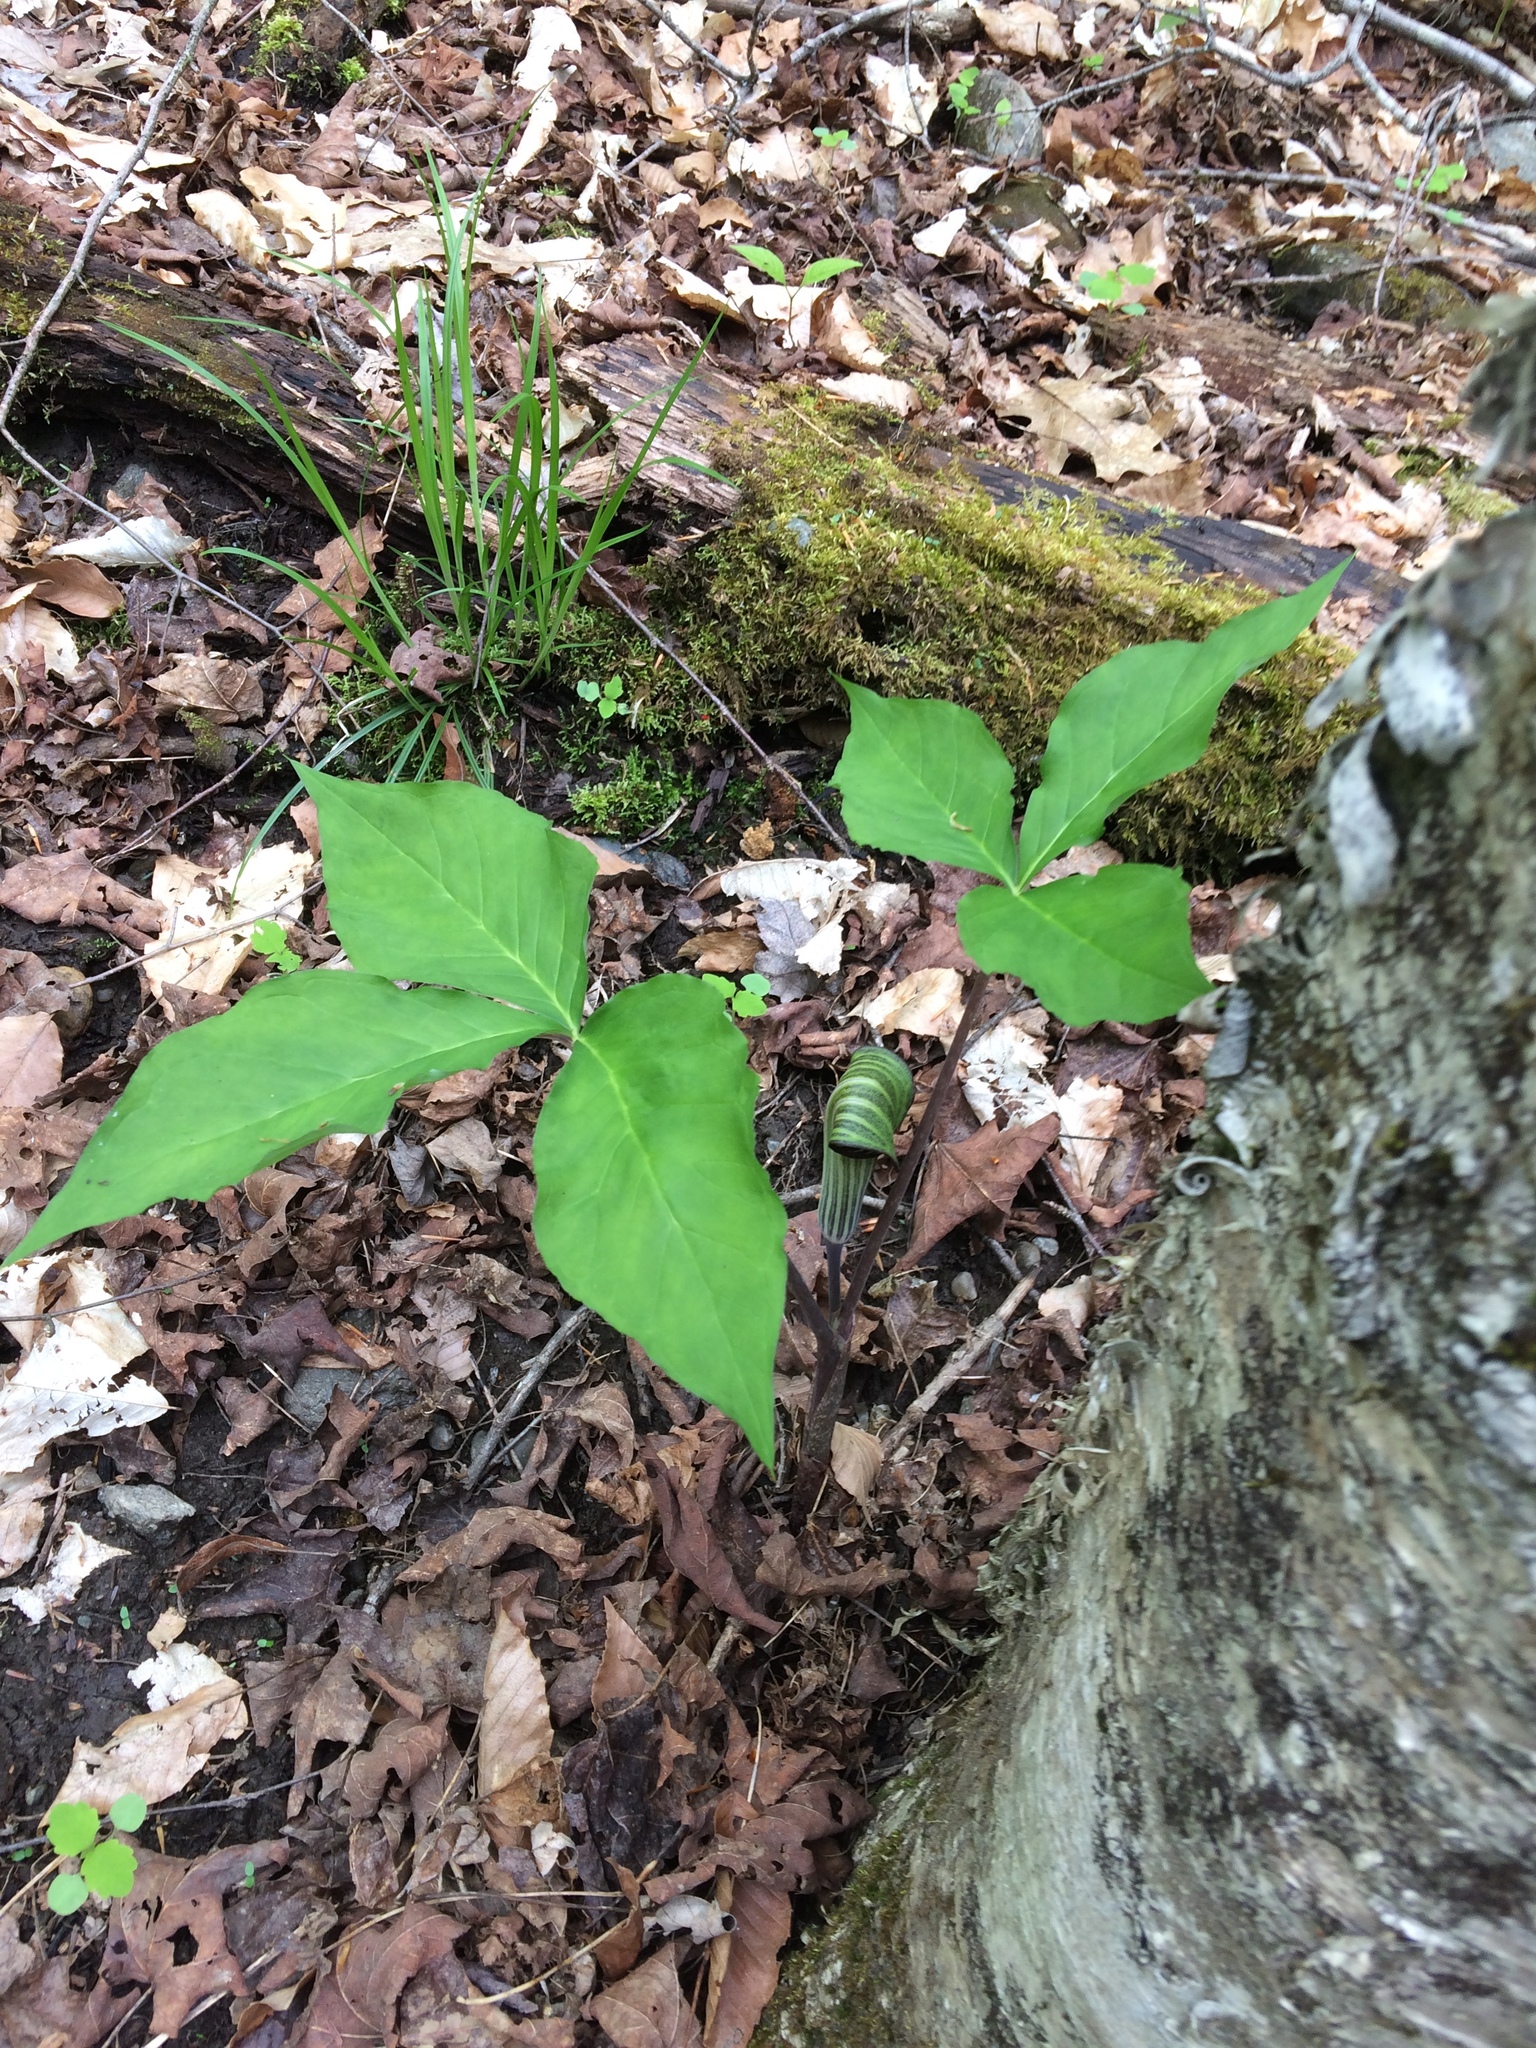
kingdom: Plantae
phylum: Tracheophyta
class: Liliopsida
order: Alismatales
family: Araceae
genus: Arisaema
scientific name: Arisaema triphyllum
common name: Jack-in-the-pulpit
